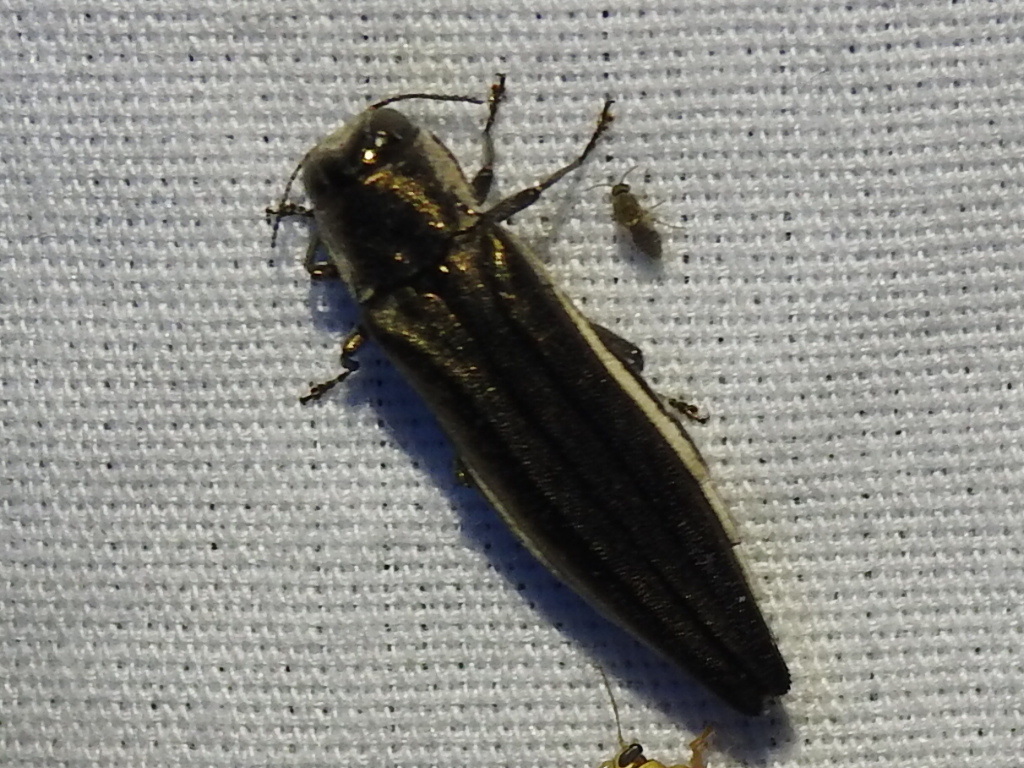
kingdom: Animalia
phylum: Arthropoda
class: Insecta
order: Coleoptera
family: Buprestidae
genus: Agrilus
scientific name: Agrilus macer
